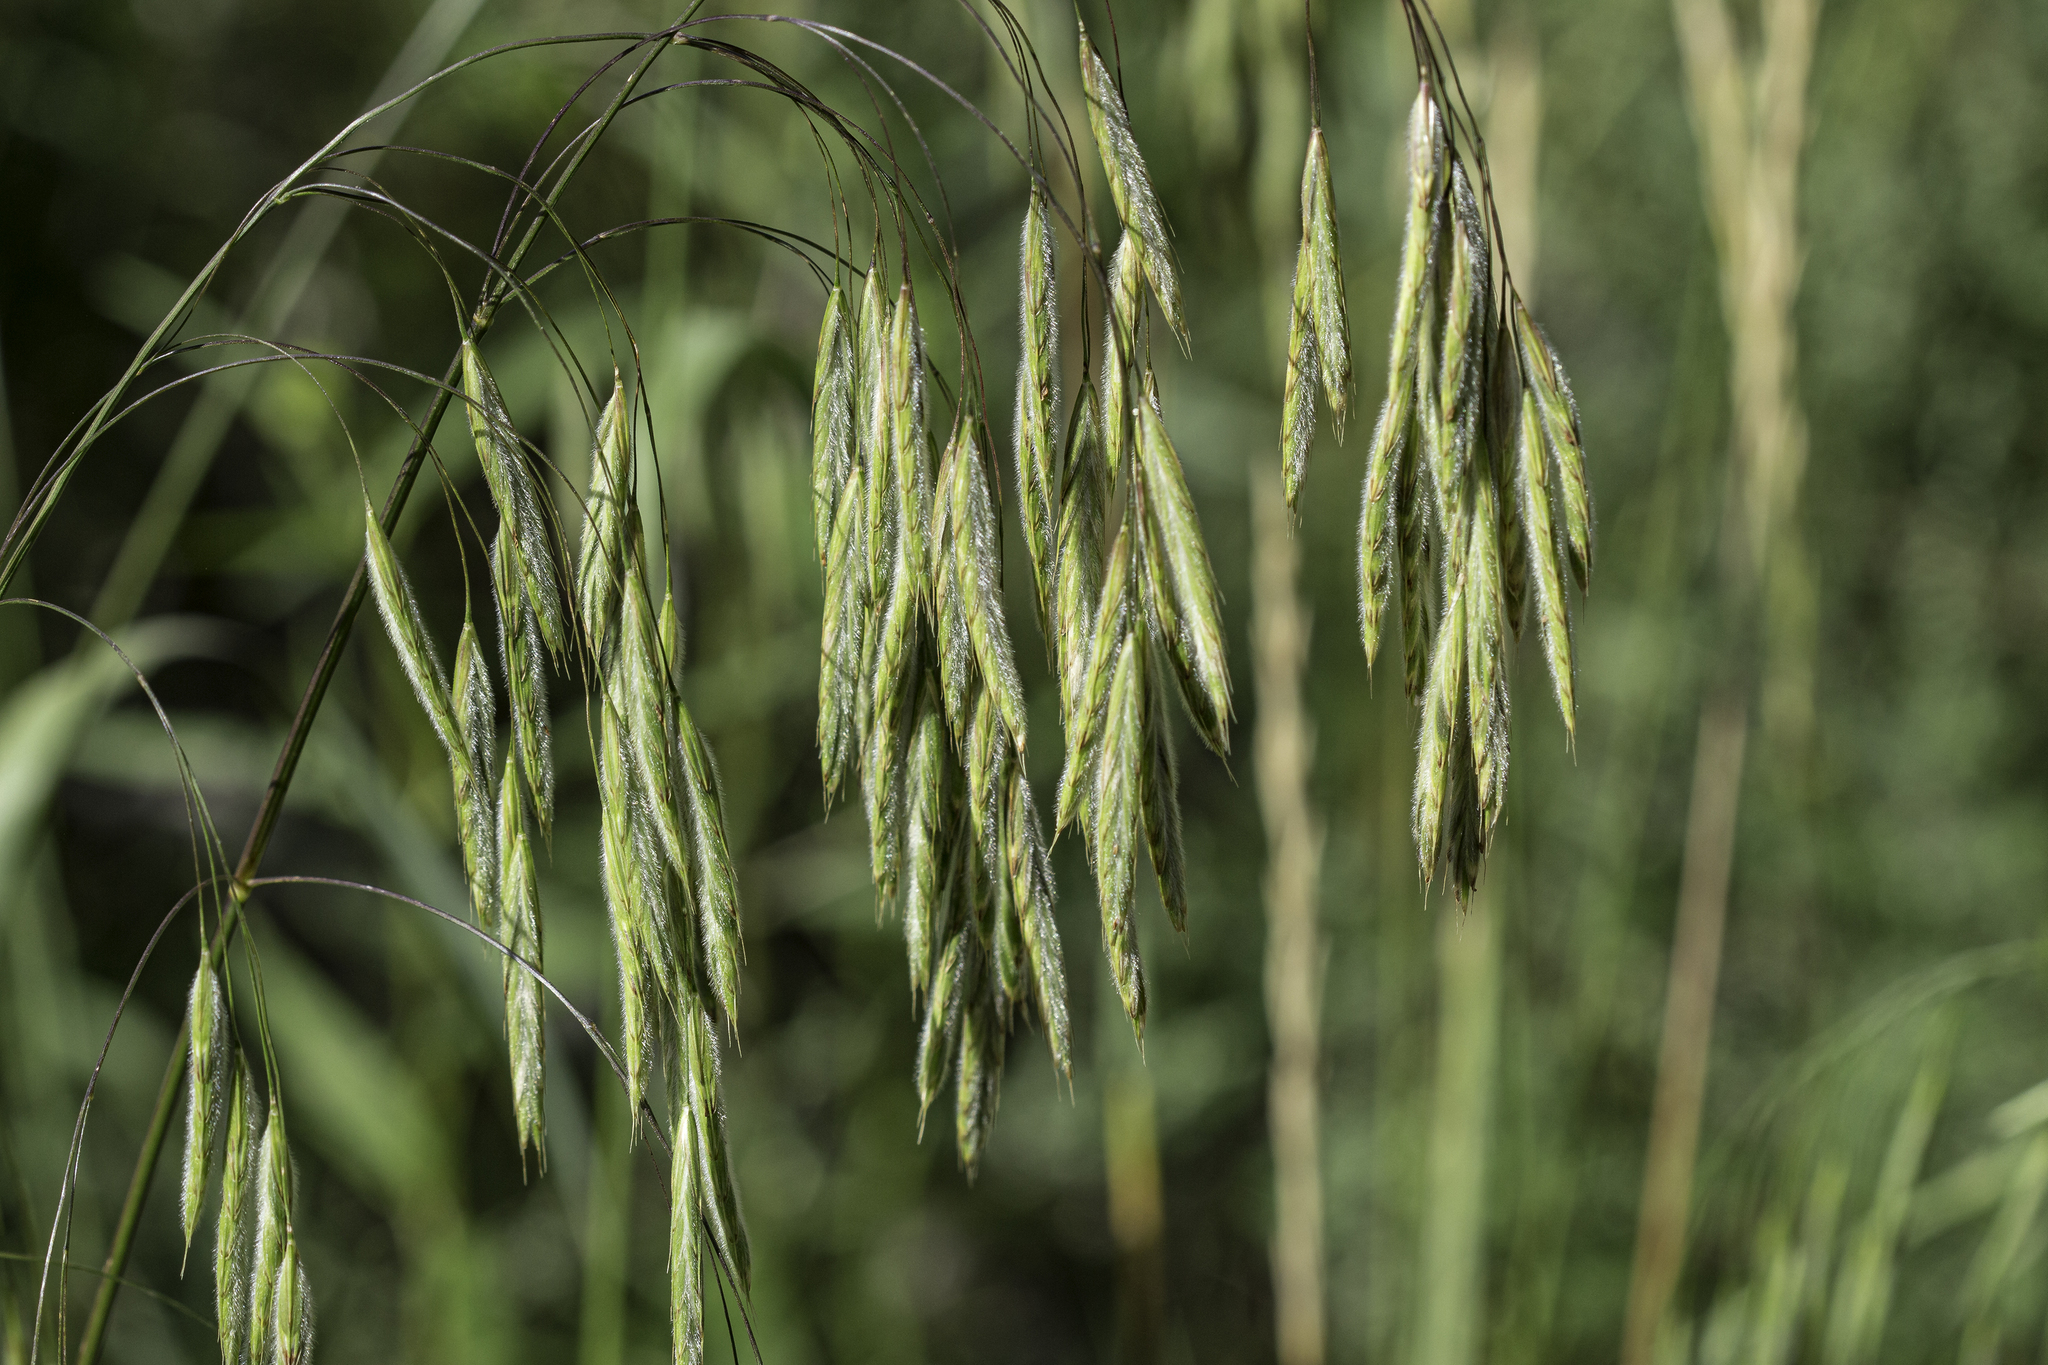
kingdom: Plantae
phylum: Tracheophyta
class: Liliopsida
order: Poales
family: Poaceae
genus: Bromus
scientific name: Bromus ciliatus
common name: Fringe brome
